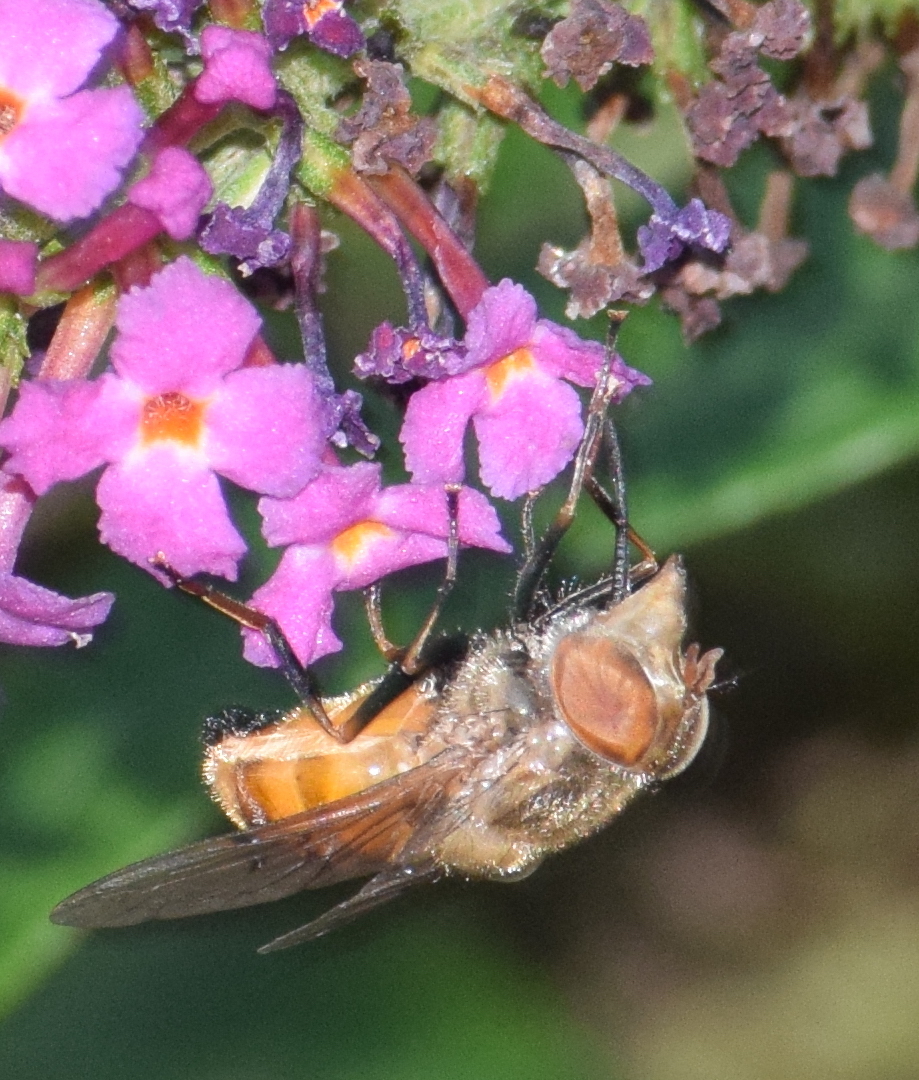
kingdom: Animalia
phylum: Arthropoda
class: Insecta
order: Diptera
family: Syrphidae
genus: Copestylum
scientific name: Copestylum haagii
